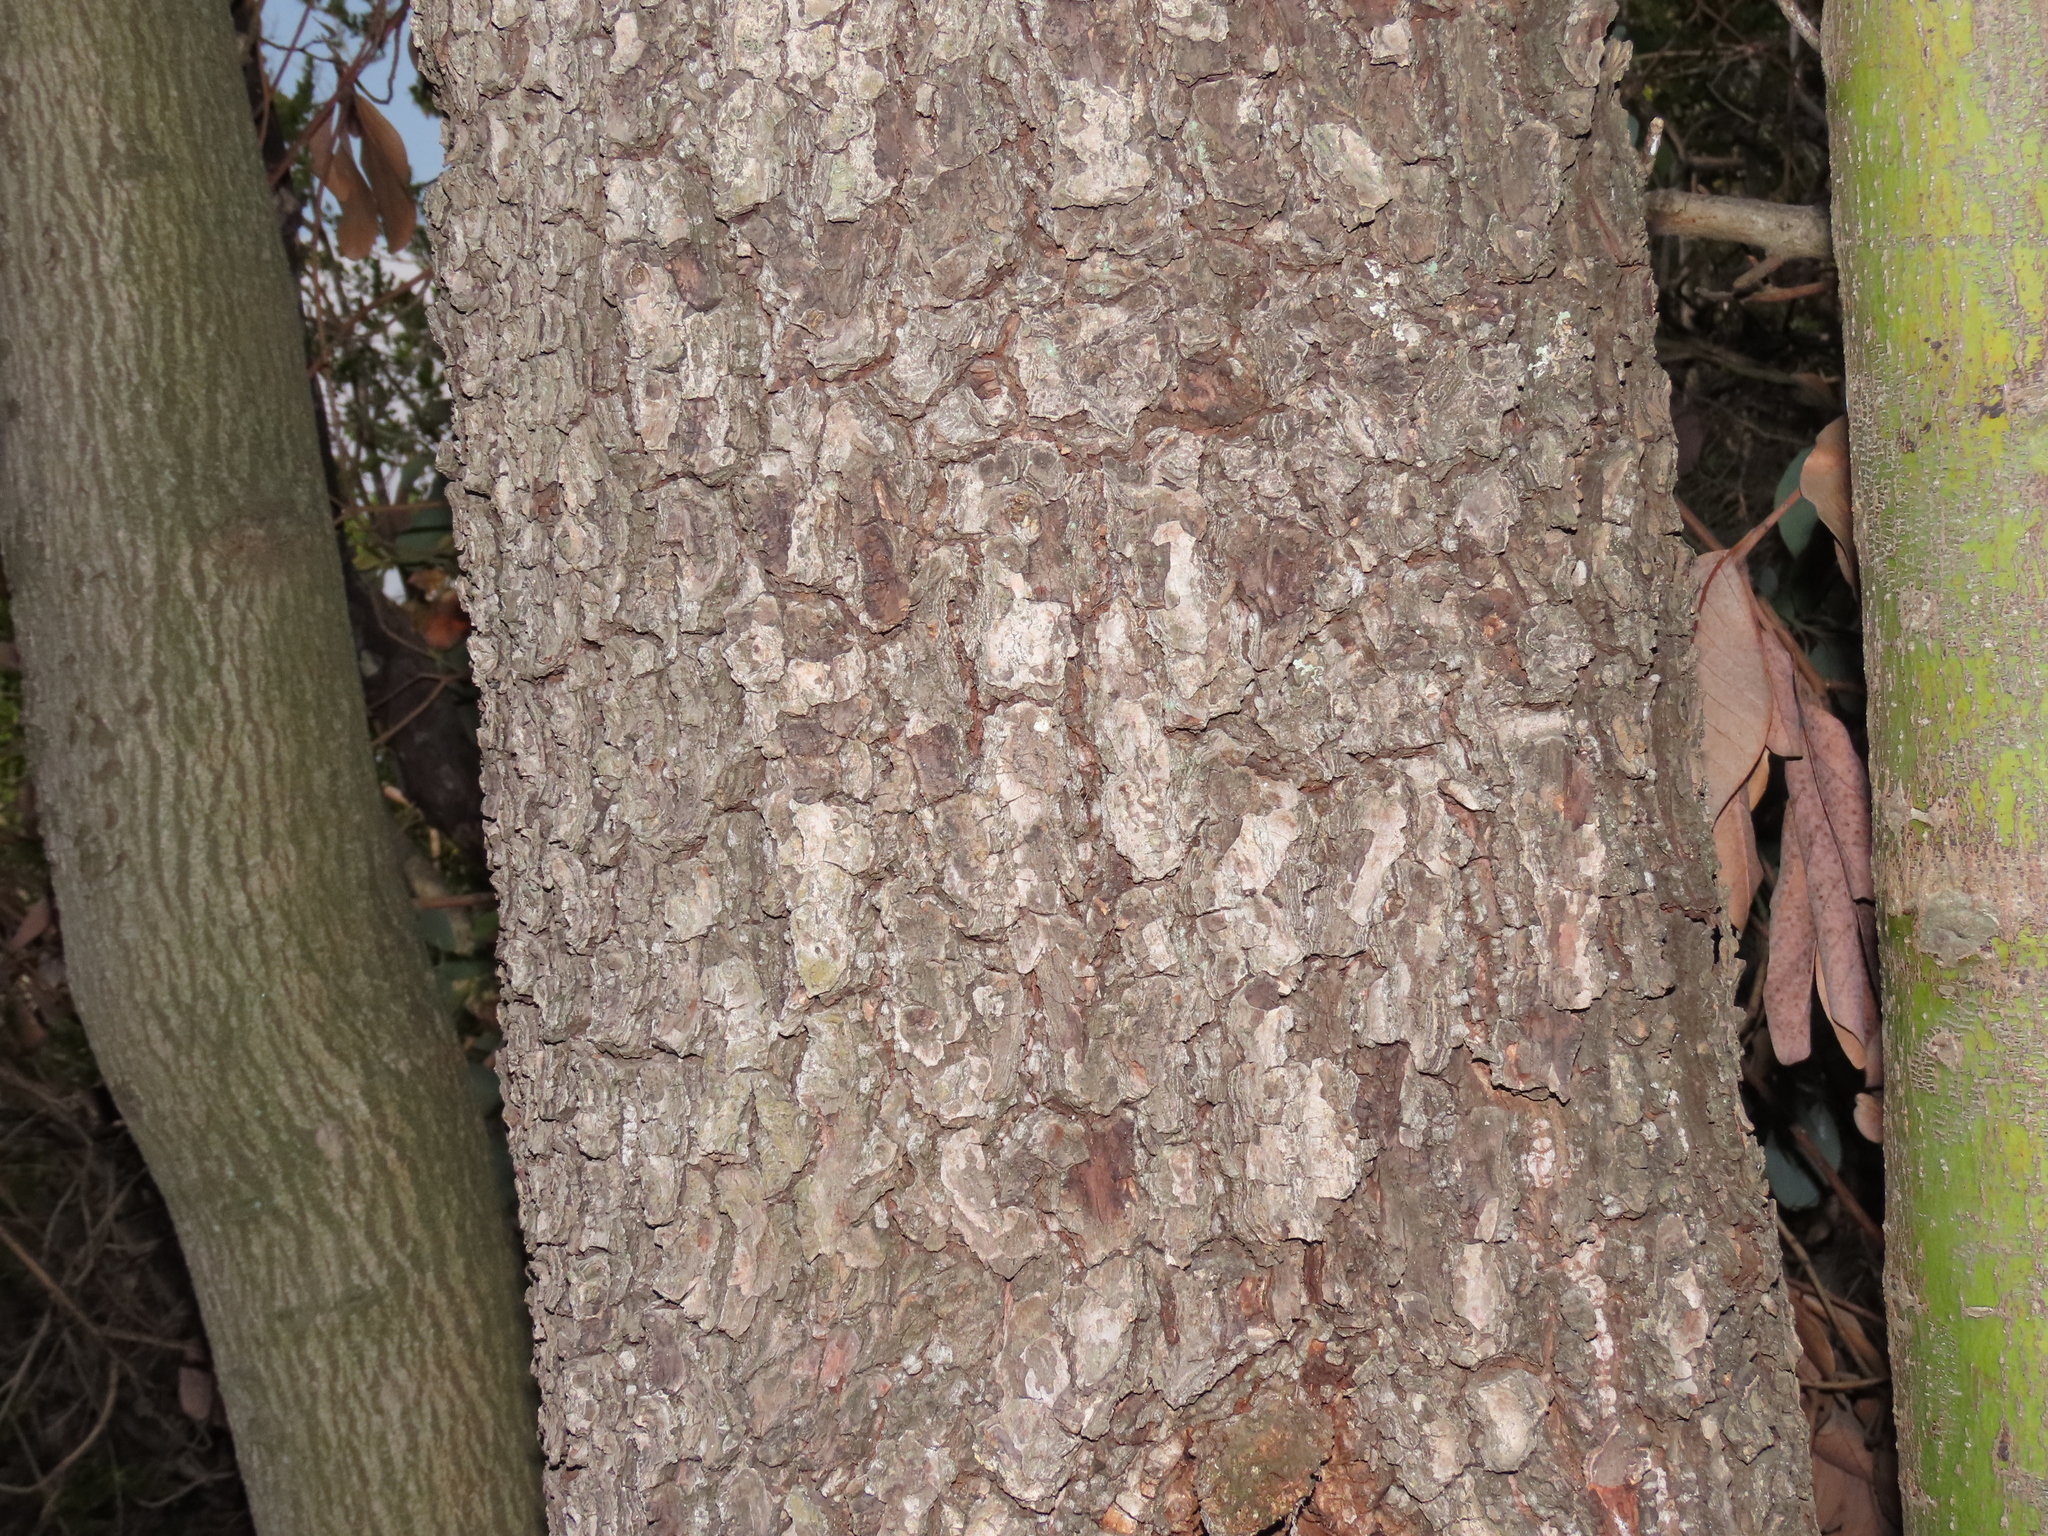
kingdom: Plantae
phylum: Tracheophyta
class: Magnoliopsida
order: Laurales
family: Lauraceae
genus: Persea
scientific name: Persea lingue
